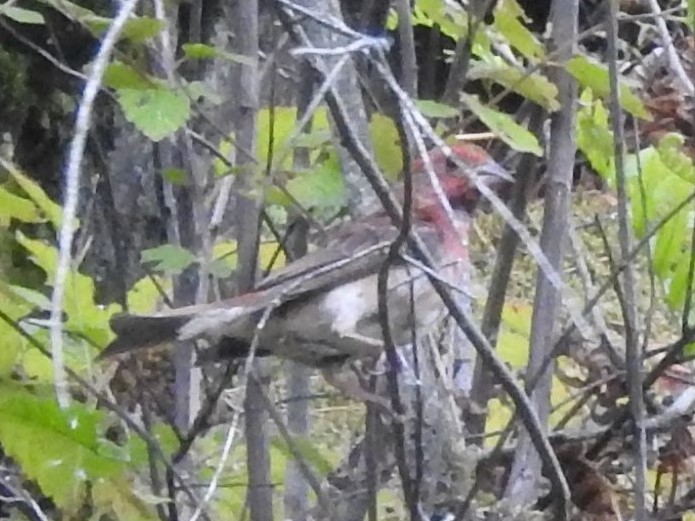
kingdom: Animalia
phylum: Chordata
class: Aves
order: Passeriformes
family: Fringillidae
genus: Haemorhous
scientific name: Haemorhous mexicanus
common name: House finch
